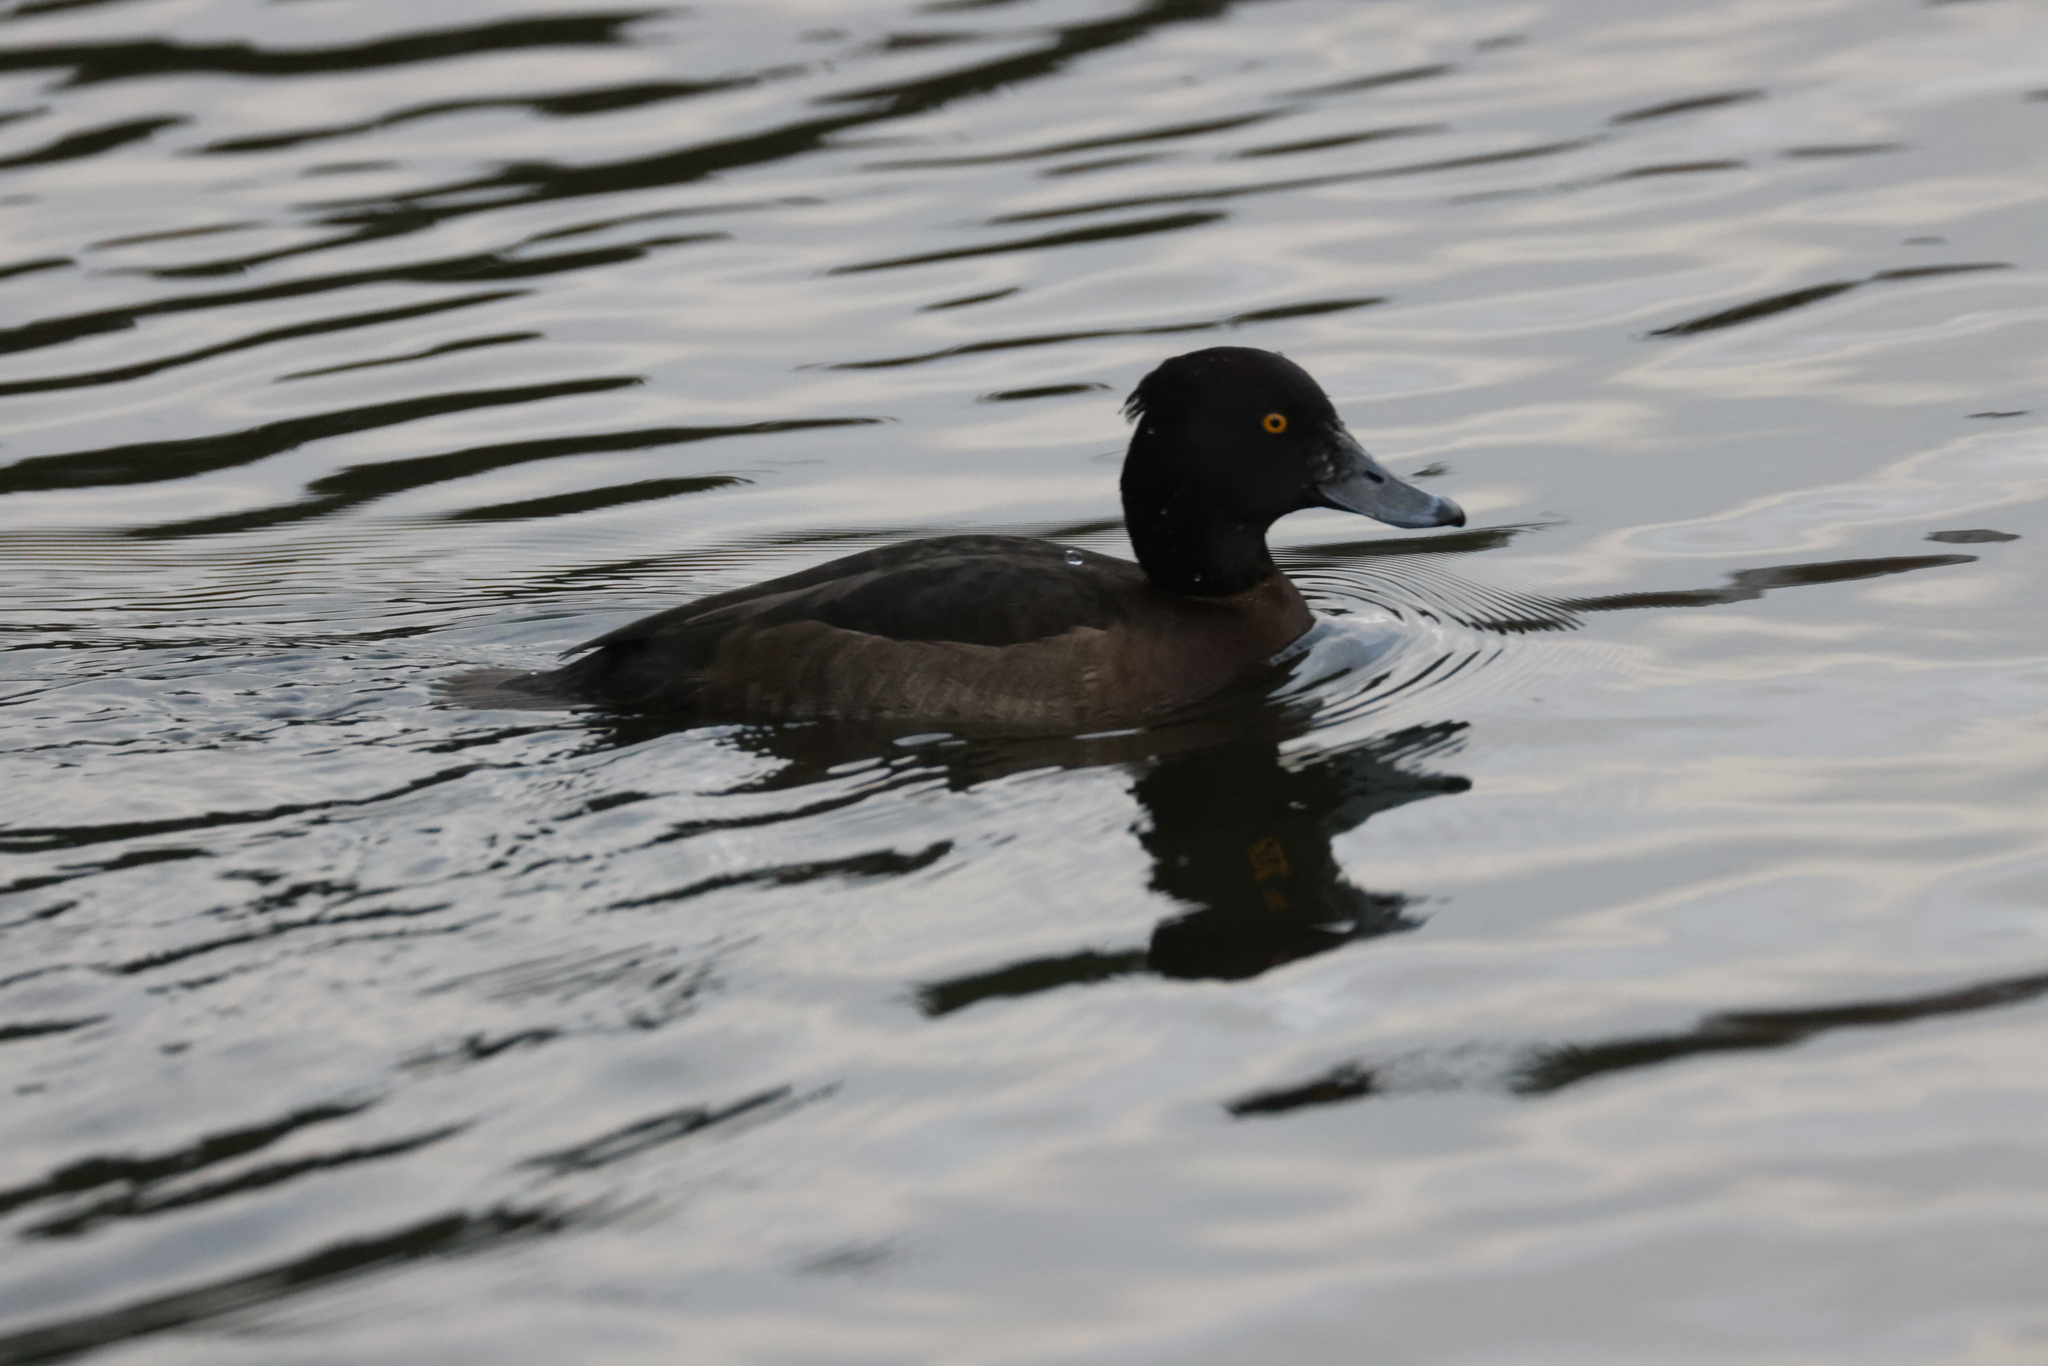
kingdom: Animalia
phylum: Chordata
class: Aves
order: Anseriformes
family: Anatidae
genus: Aythya
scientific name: Aythya fuligula
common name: Tufted duck
